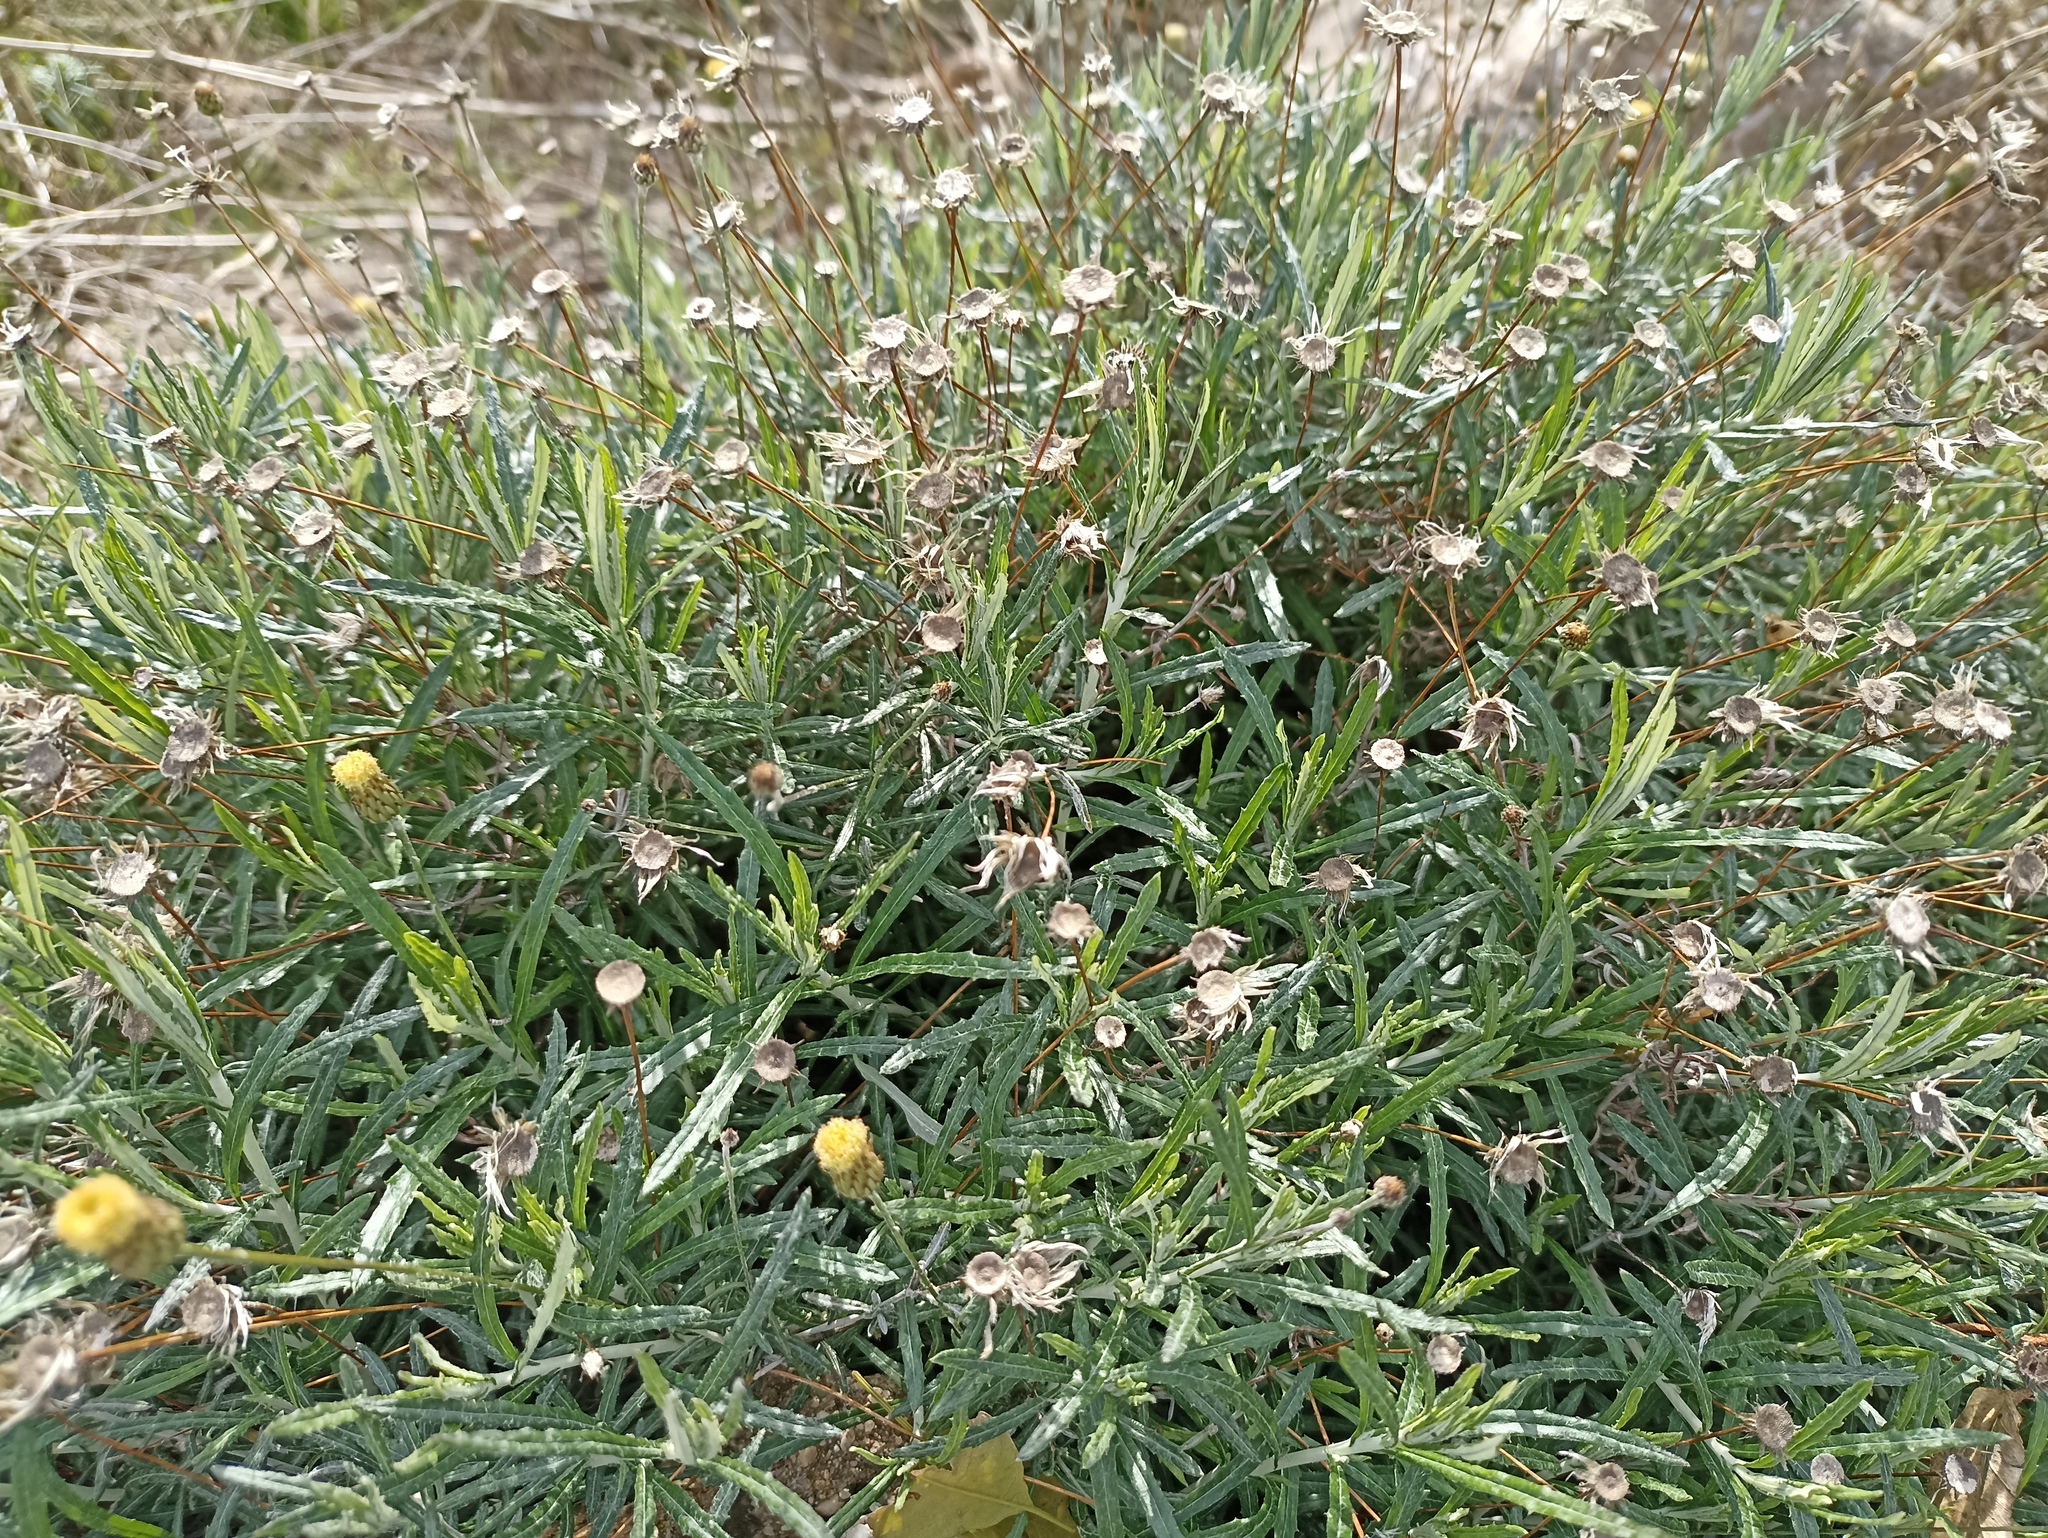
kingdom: Plantae
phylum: Tracheophyta
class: Magnoliopsida
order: Asterales
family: Asteraceae
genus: Phagnalon
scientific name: Phagnalon saxatile
